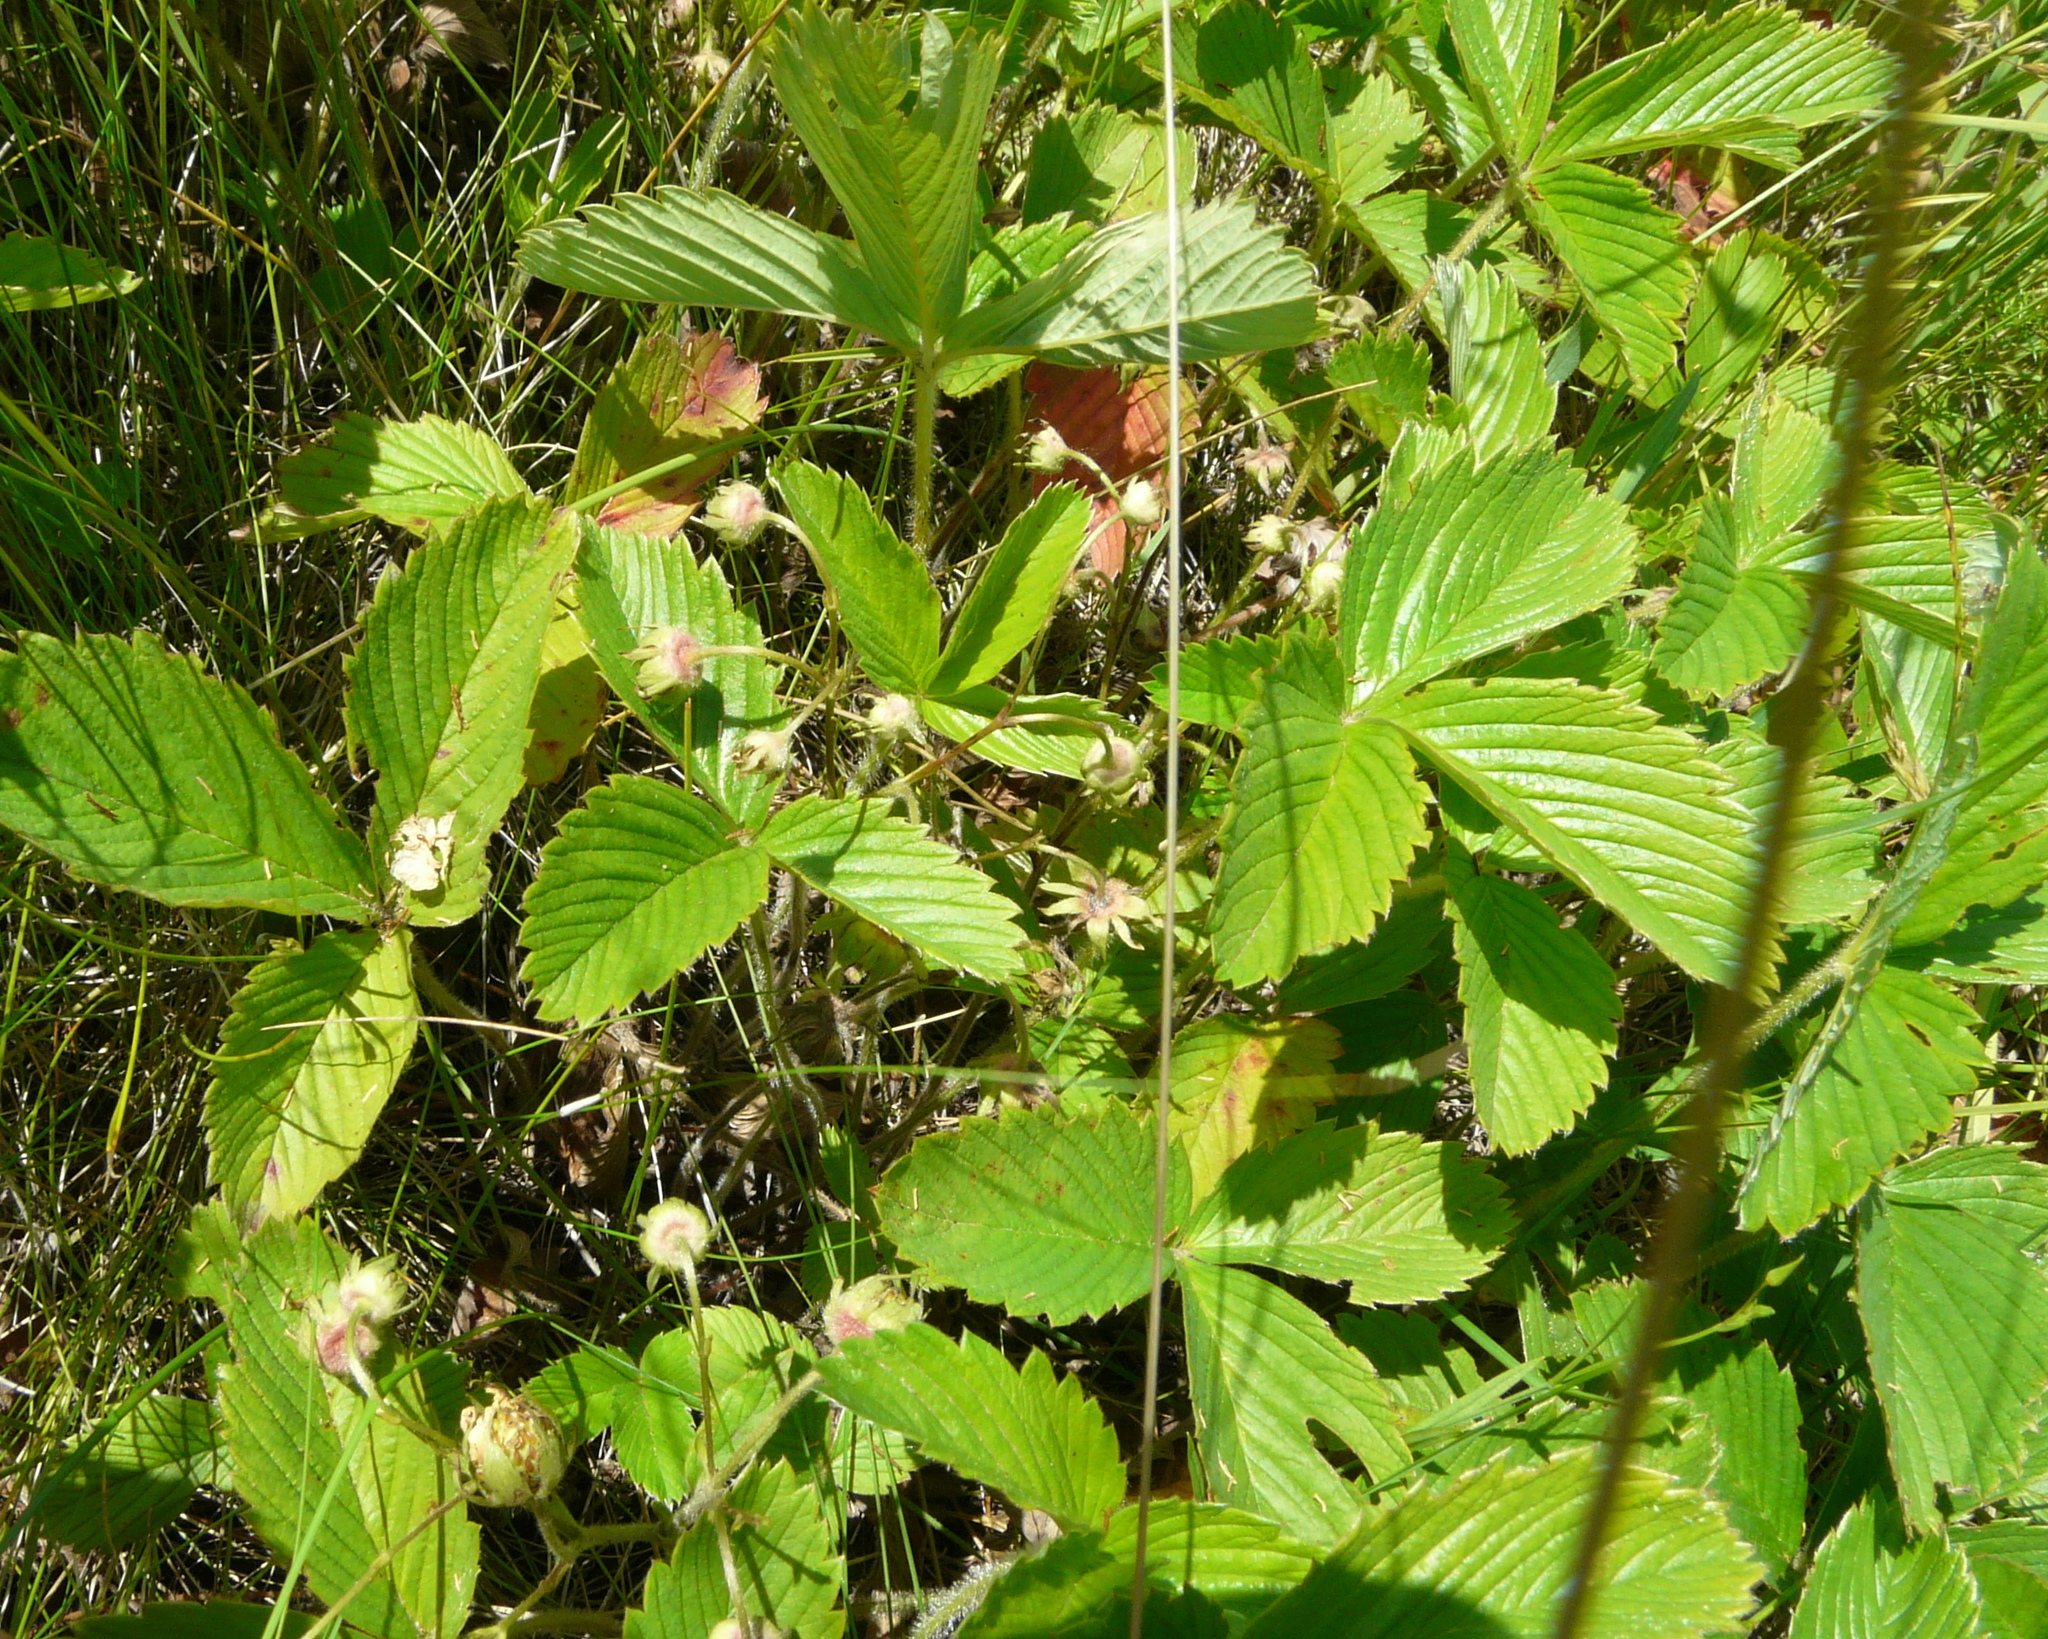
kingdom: Plantae
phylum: Tracheophyta
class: Magnoliopsida
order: Rosales
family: Rosaceae
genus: Fragaria
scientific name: Fragaria viridis
